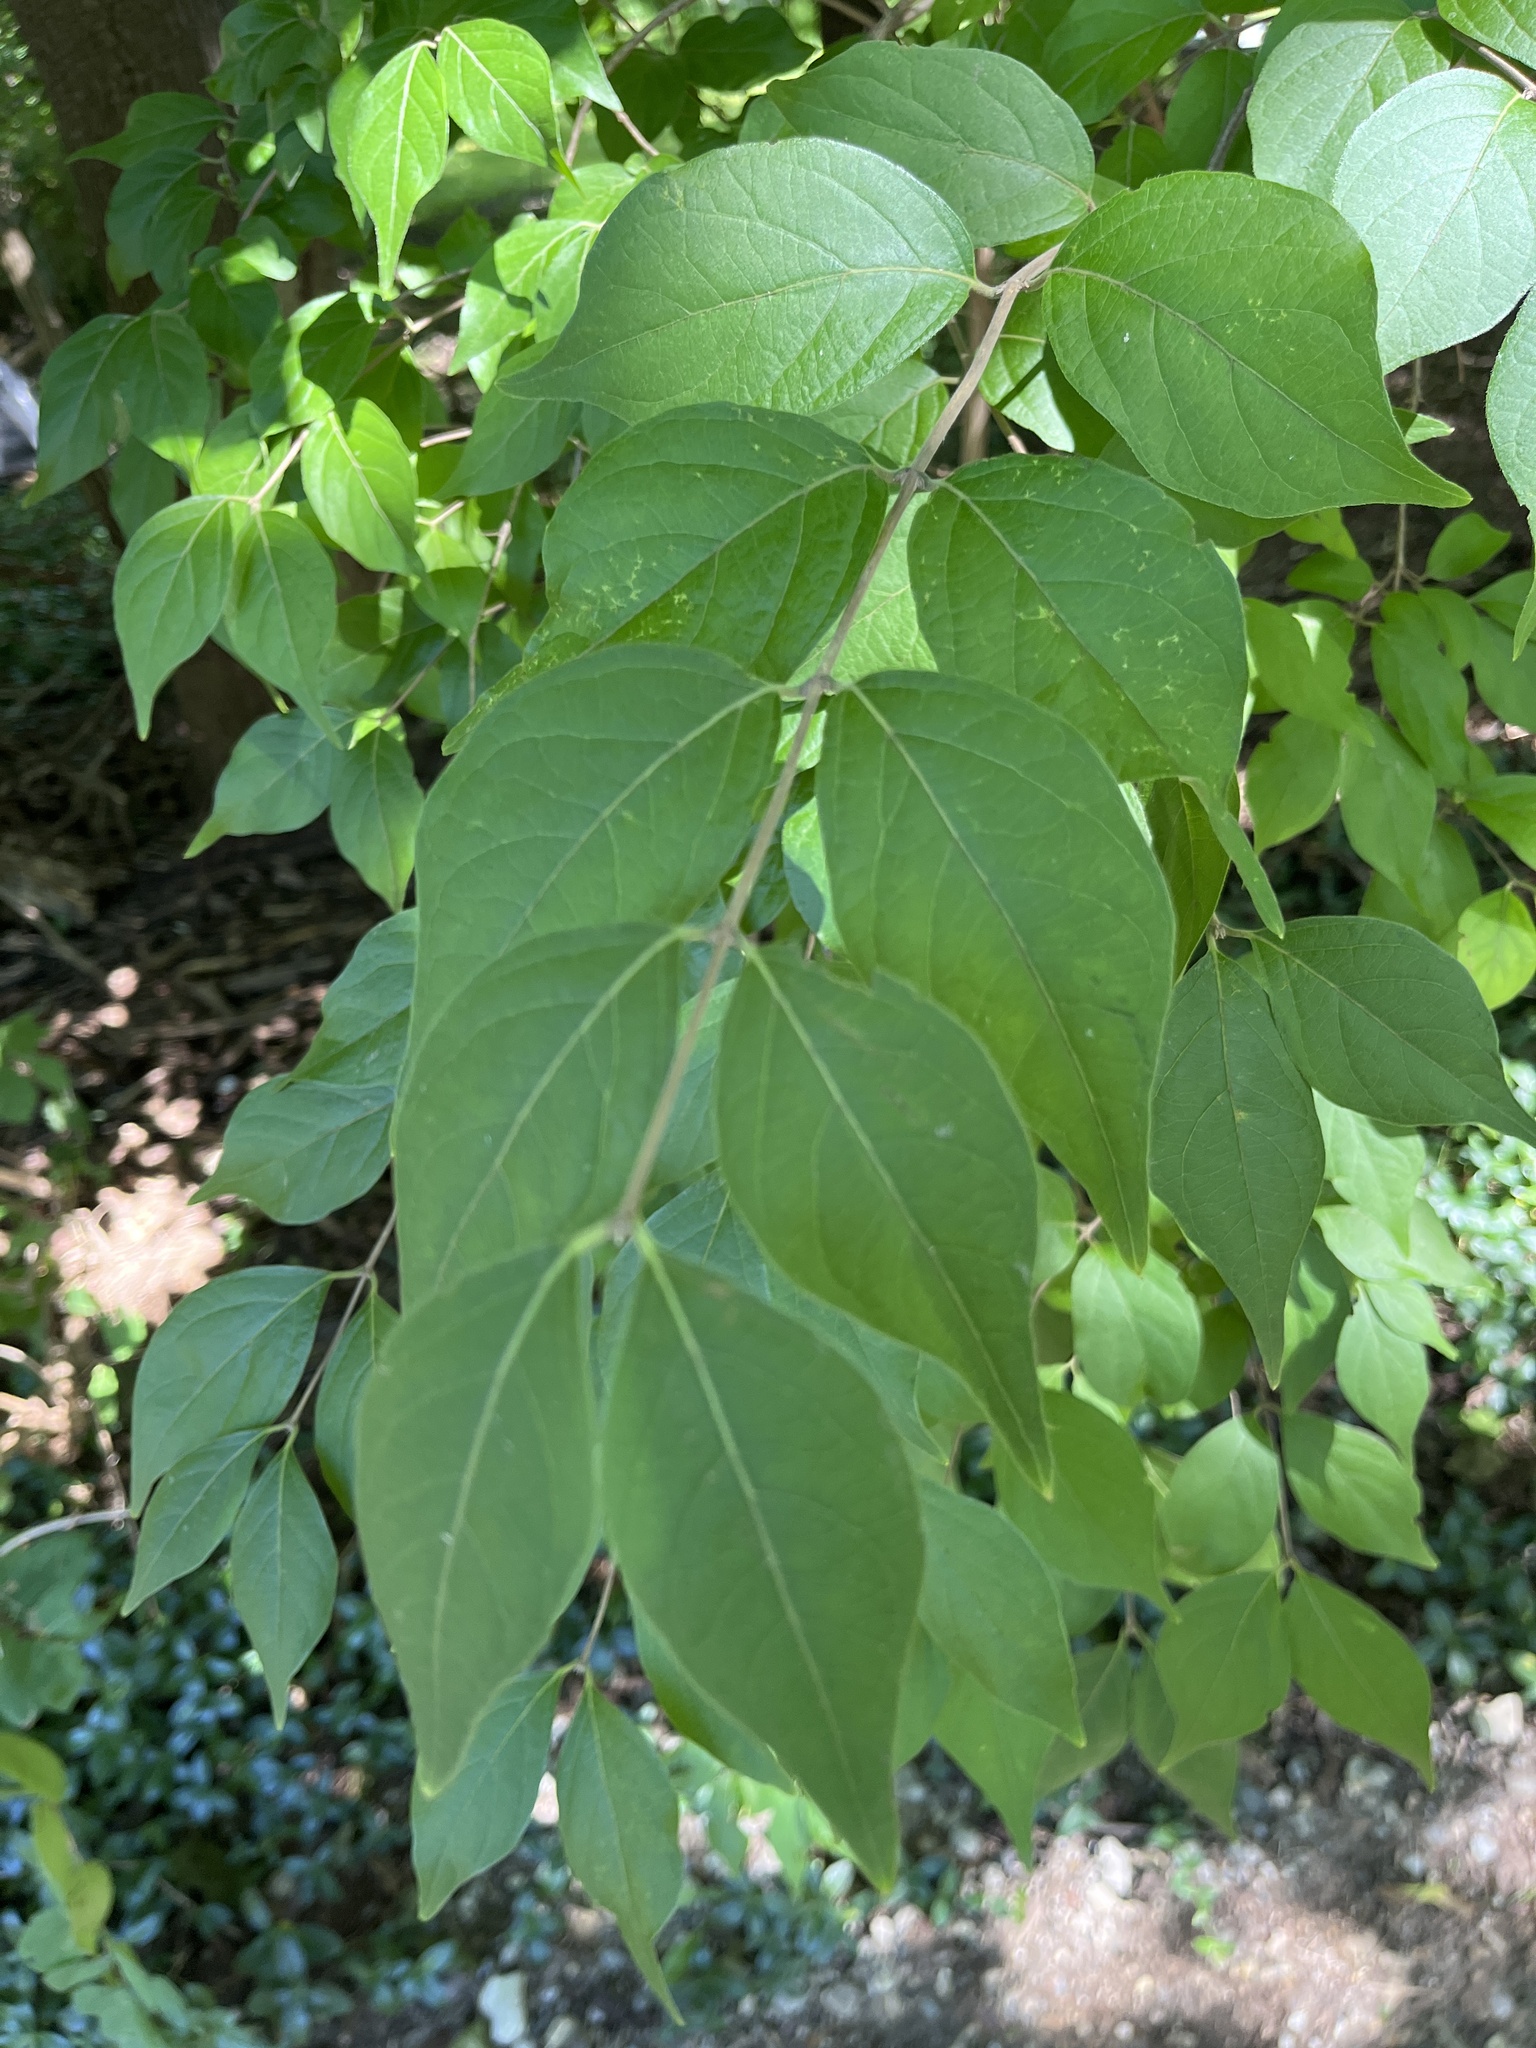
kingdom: Plantae
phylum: Tracheophyta
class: Magnoliopsida
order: Dipsacales
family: Caprifoliaceae
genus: Lonicera
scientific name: Lonicera maackii
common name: Amur honeysuckle
